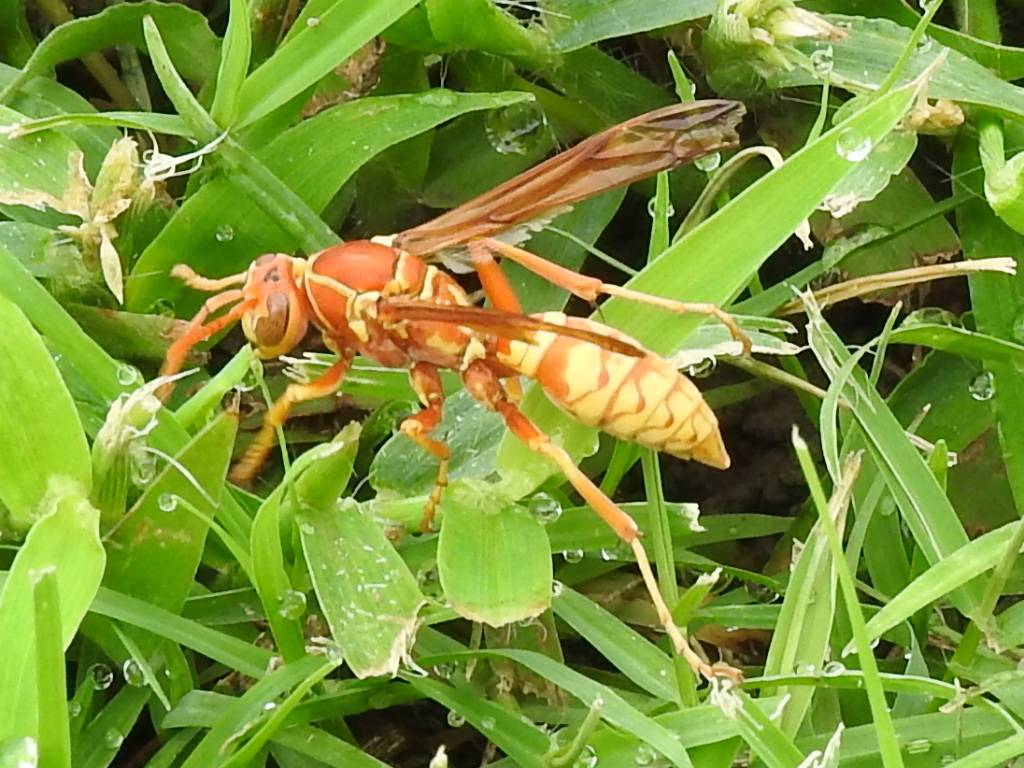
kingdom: Animalia
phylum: Arthropoda
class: Insecta
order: Hymenoptera
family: Eumenidae
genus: Polistes
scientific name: Polistes apachus
